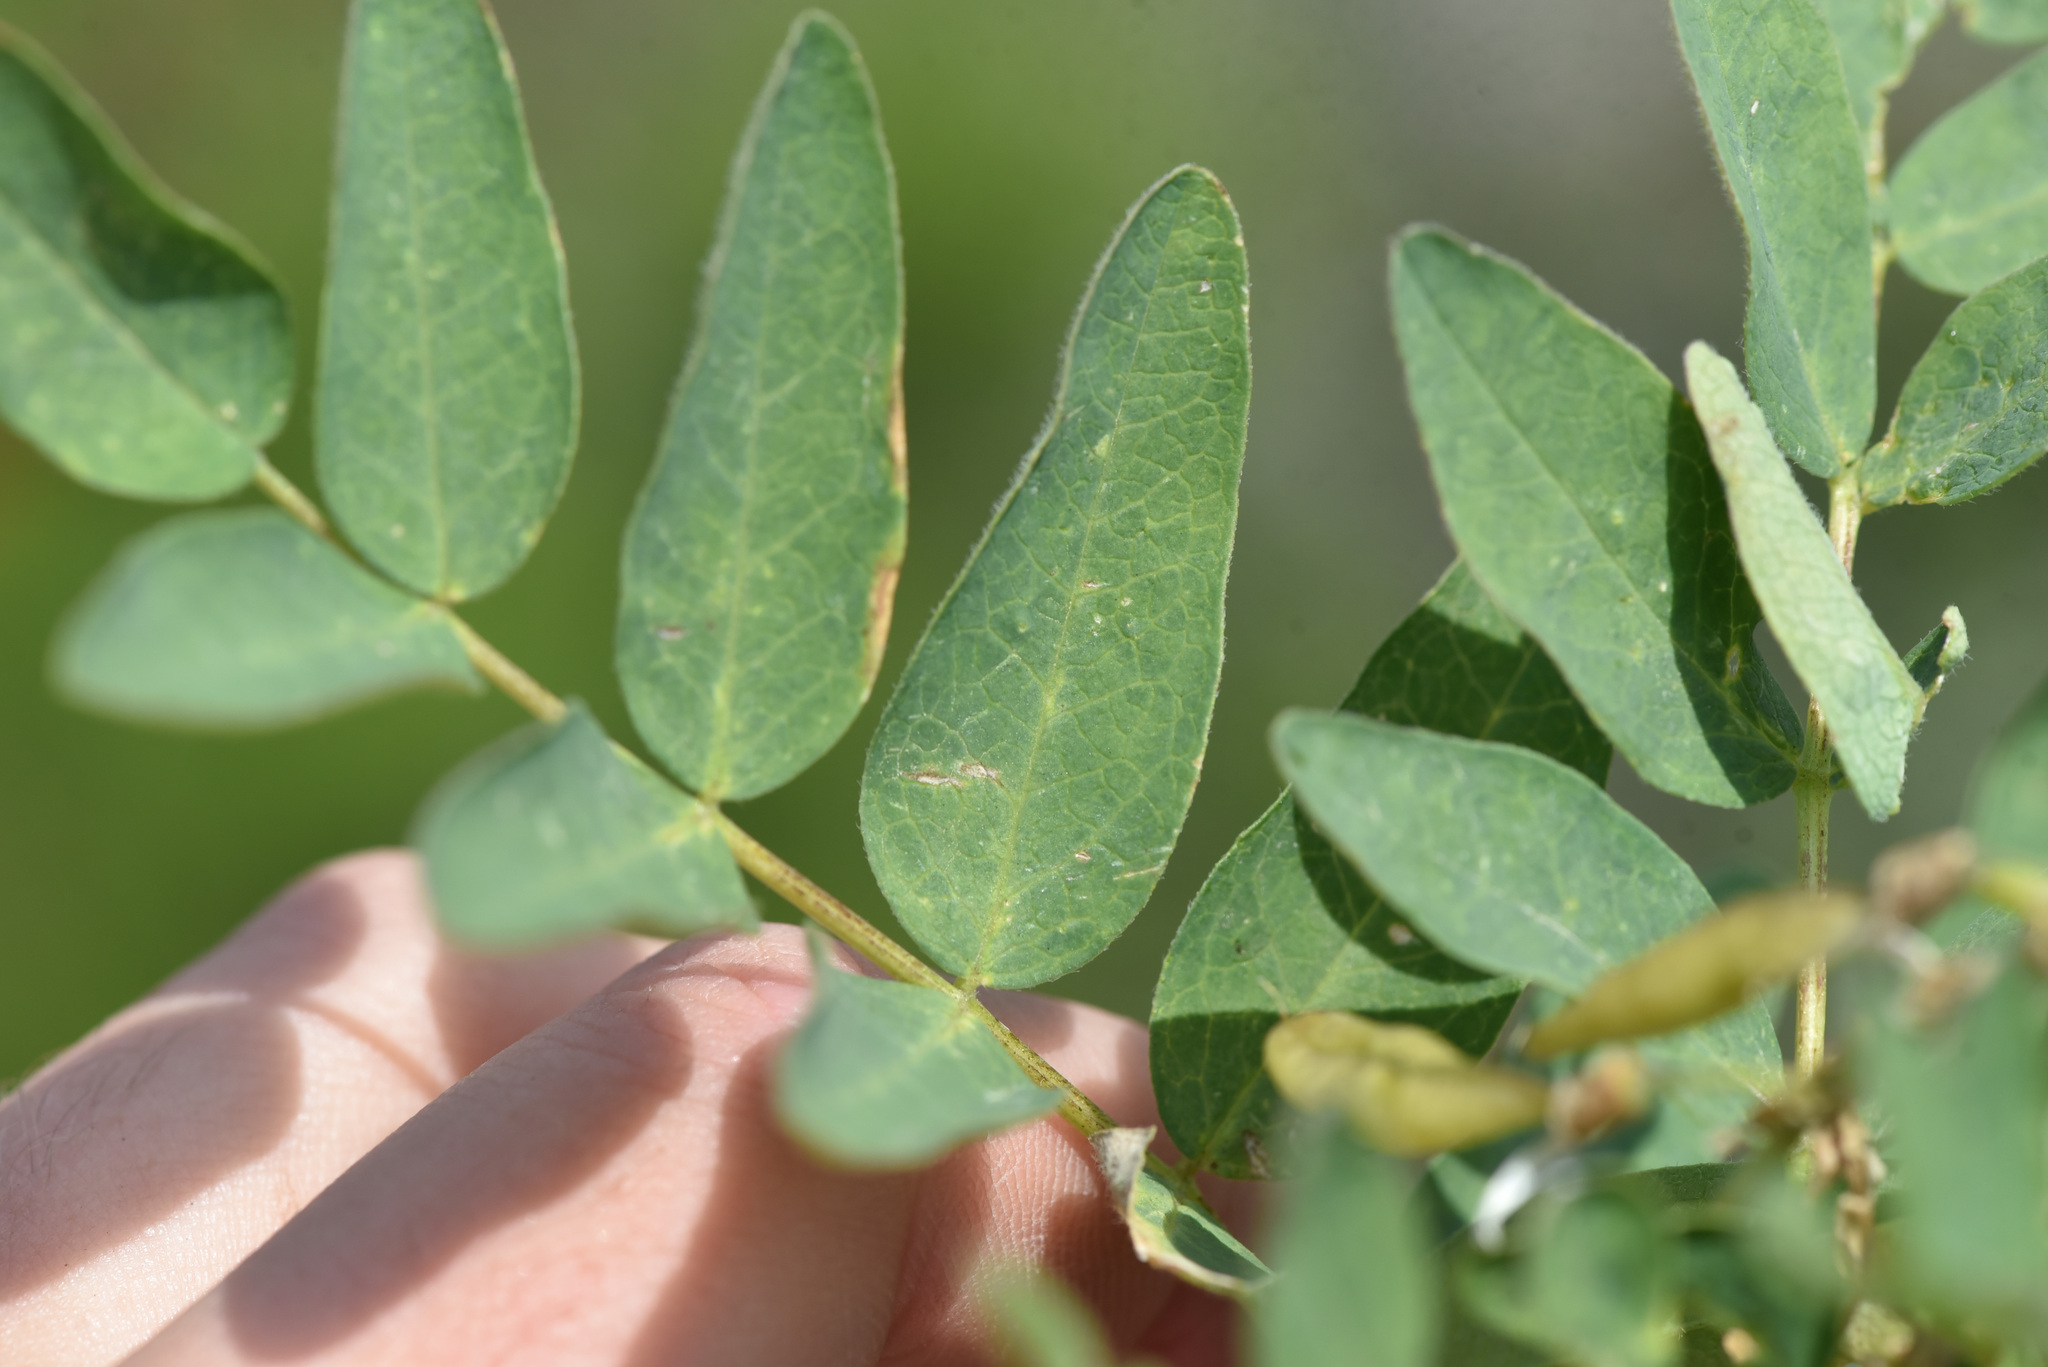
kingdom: Plantae
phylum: Tracheophyta
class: Magnoliopsida
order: Fabales
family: Fabaceae
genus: Astragalus
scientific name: Astragalus americanus
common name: American milk-vetch
